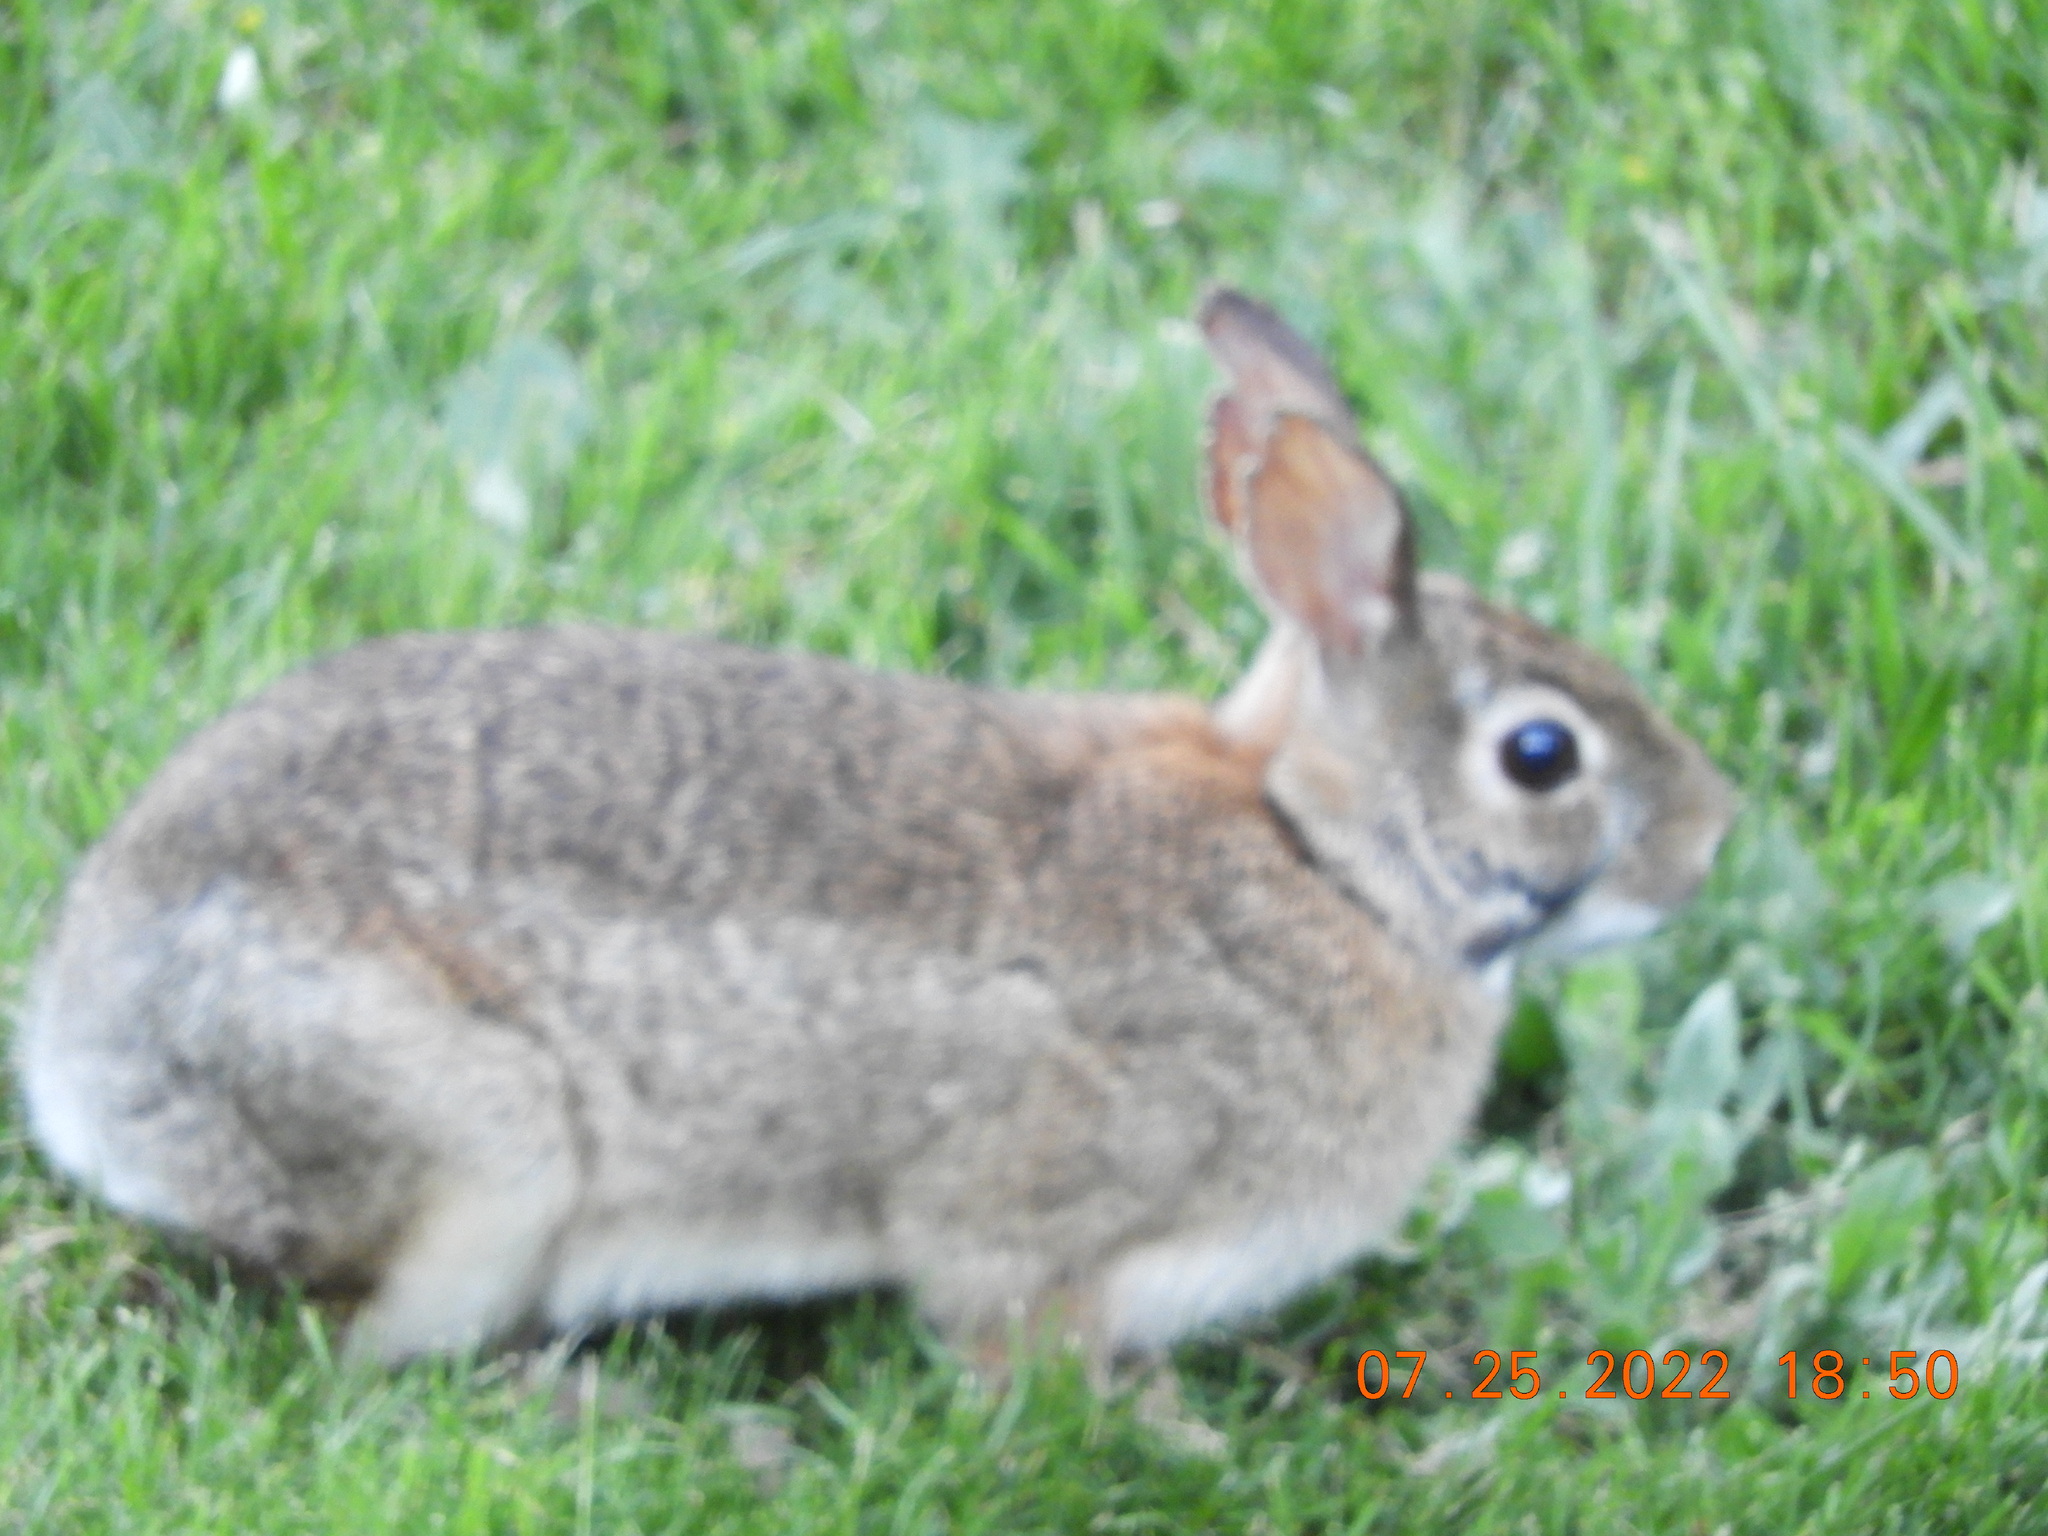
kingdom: Animalia
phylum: Chordata
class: Mammalia
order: Lagomorpha
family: Leporidae
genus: Sylvilagus
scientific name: Sylvilagus floridanus
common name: Eastern cottontail
